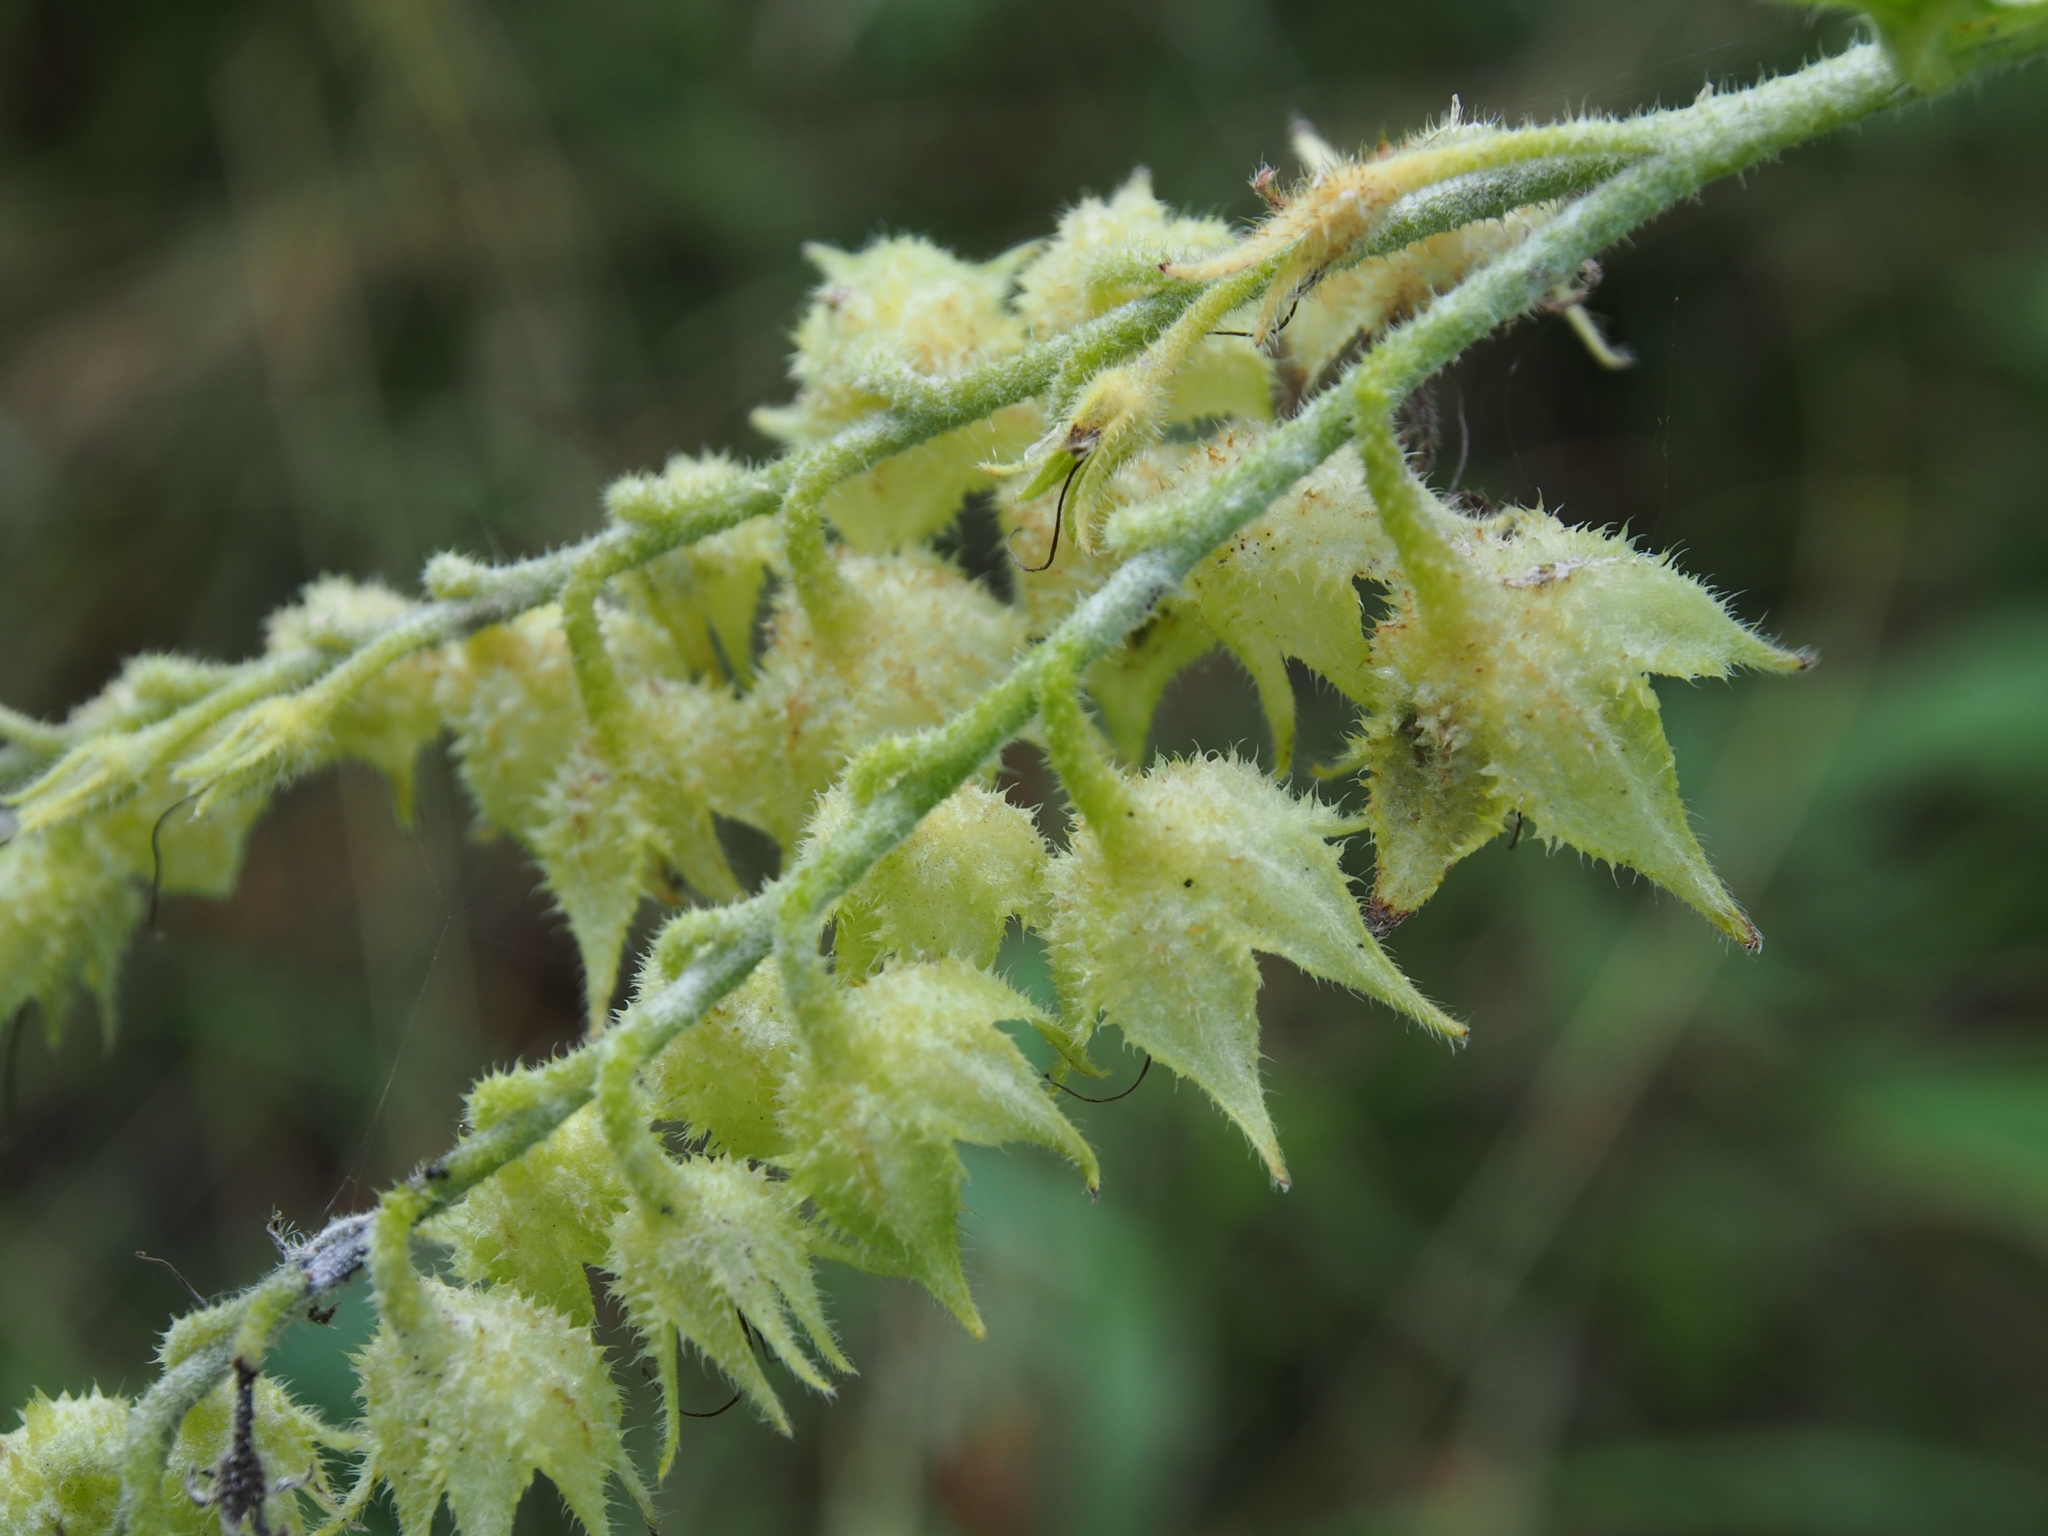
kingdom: Plantae
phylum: Tracheophyta
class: Magnoliopsida
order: Boraginales
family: Boraginaceae
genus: Symphytum
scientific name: Symphytum uplandicum
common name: Russian comfrey
